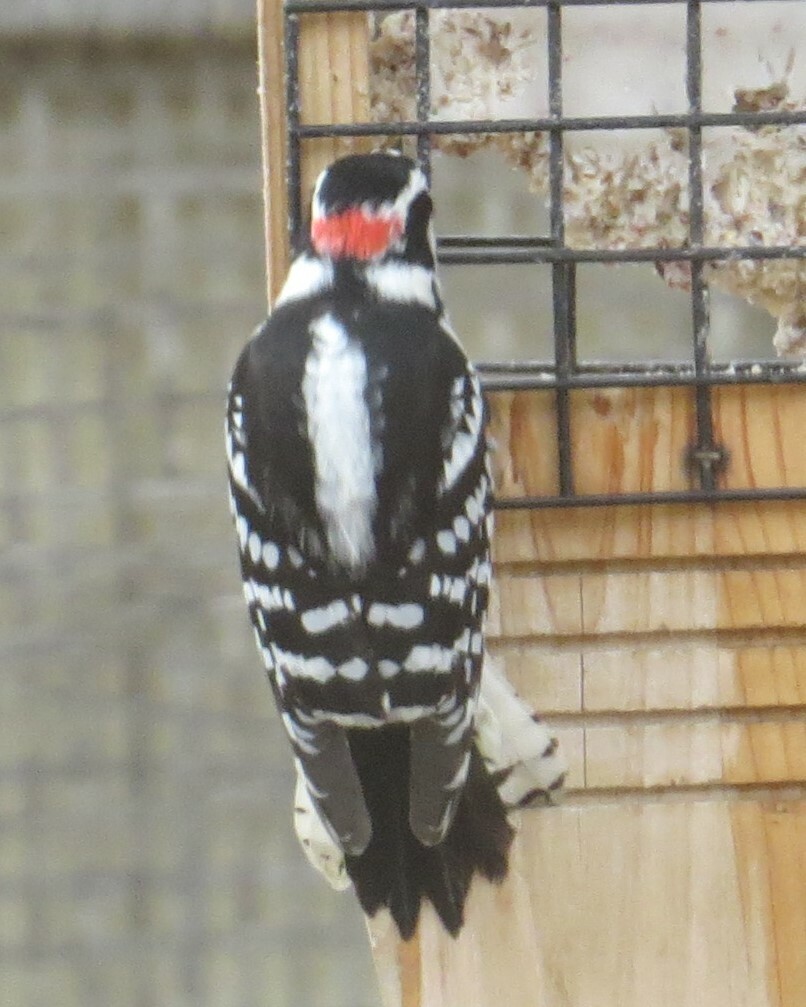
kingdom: Animalia
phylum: Chordata
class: Aves
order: Piciformes
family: Picidae
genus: Dryobates
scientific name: Dryobates pubescens
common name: Downy woodpecker
